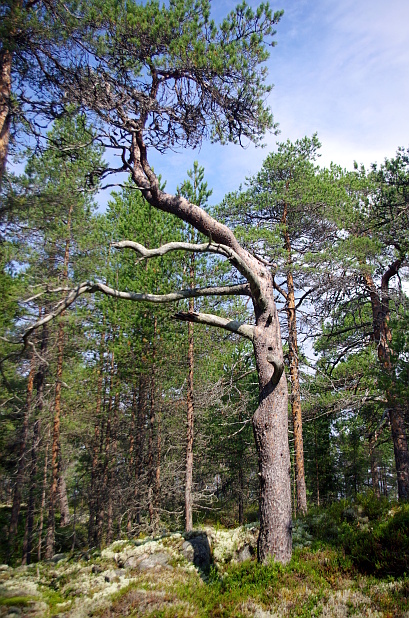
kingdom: Plantae
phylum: Tracheophyta
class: Pinopsida
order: Pinales
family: Pinaceae
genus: Pinus
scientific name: Pinus sylvestris
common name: Scots pine
